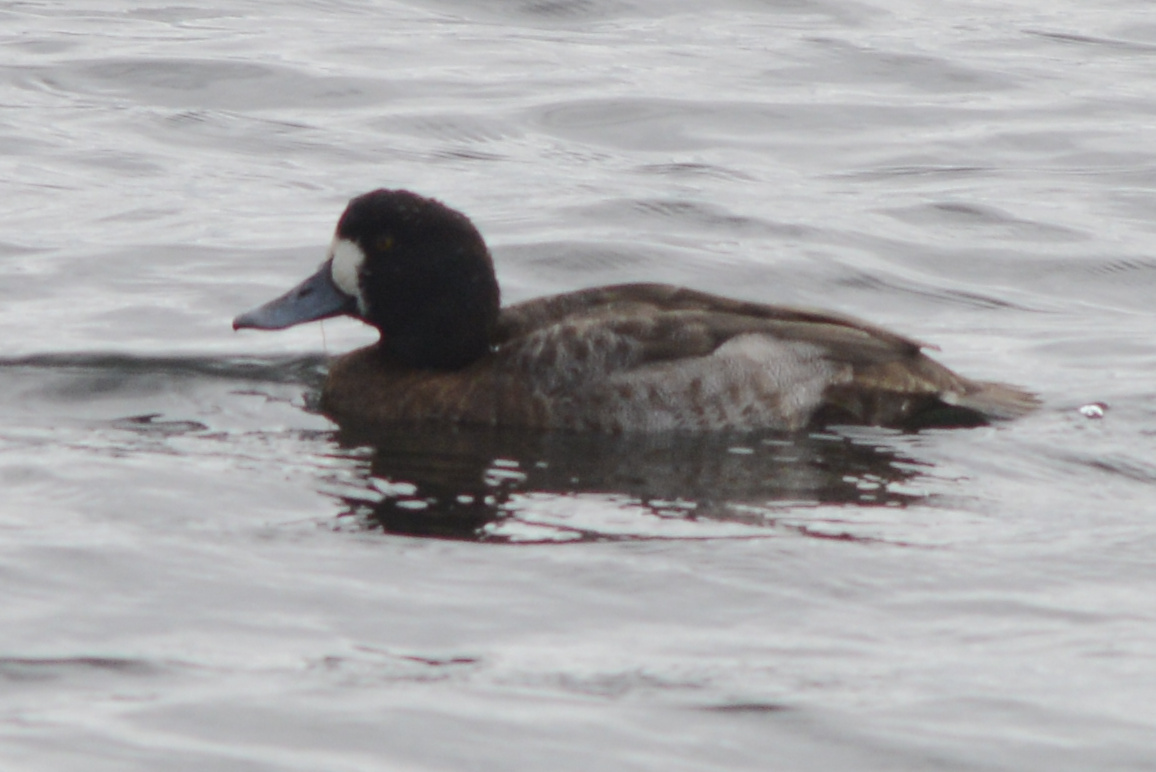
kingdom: Animalia
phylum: Chordata
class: Aves
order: Anseriformes
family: Anatidae
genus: Aythya
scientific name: Aythya marila
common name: Greater scaup
